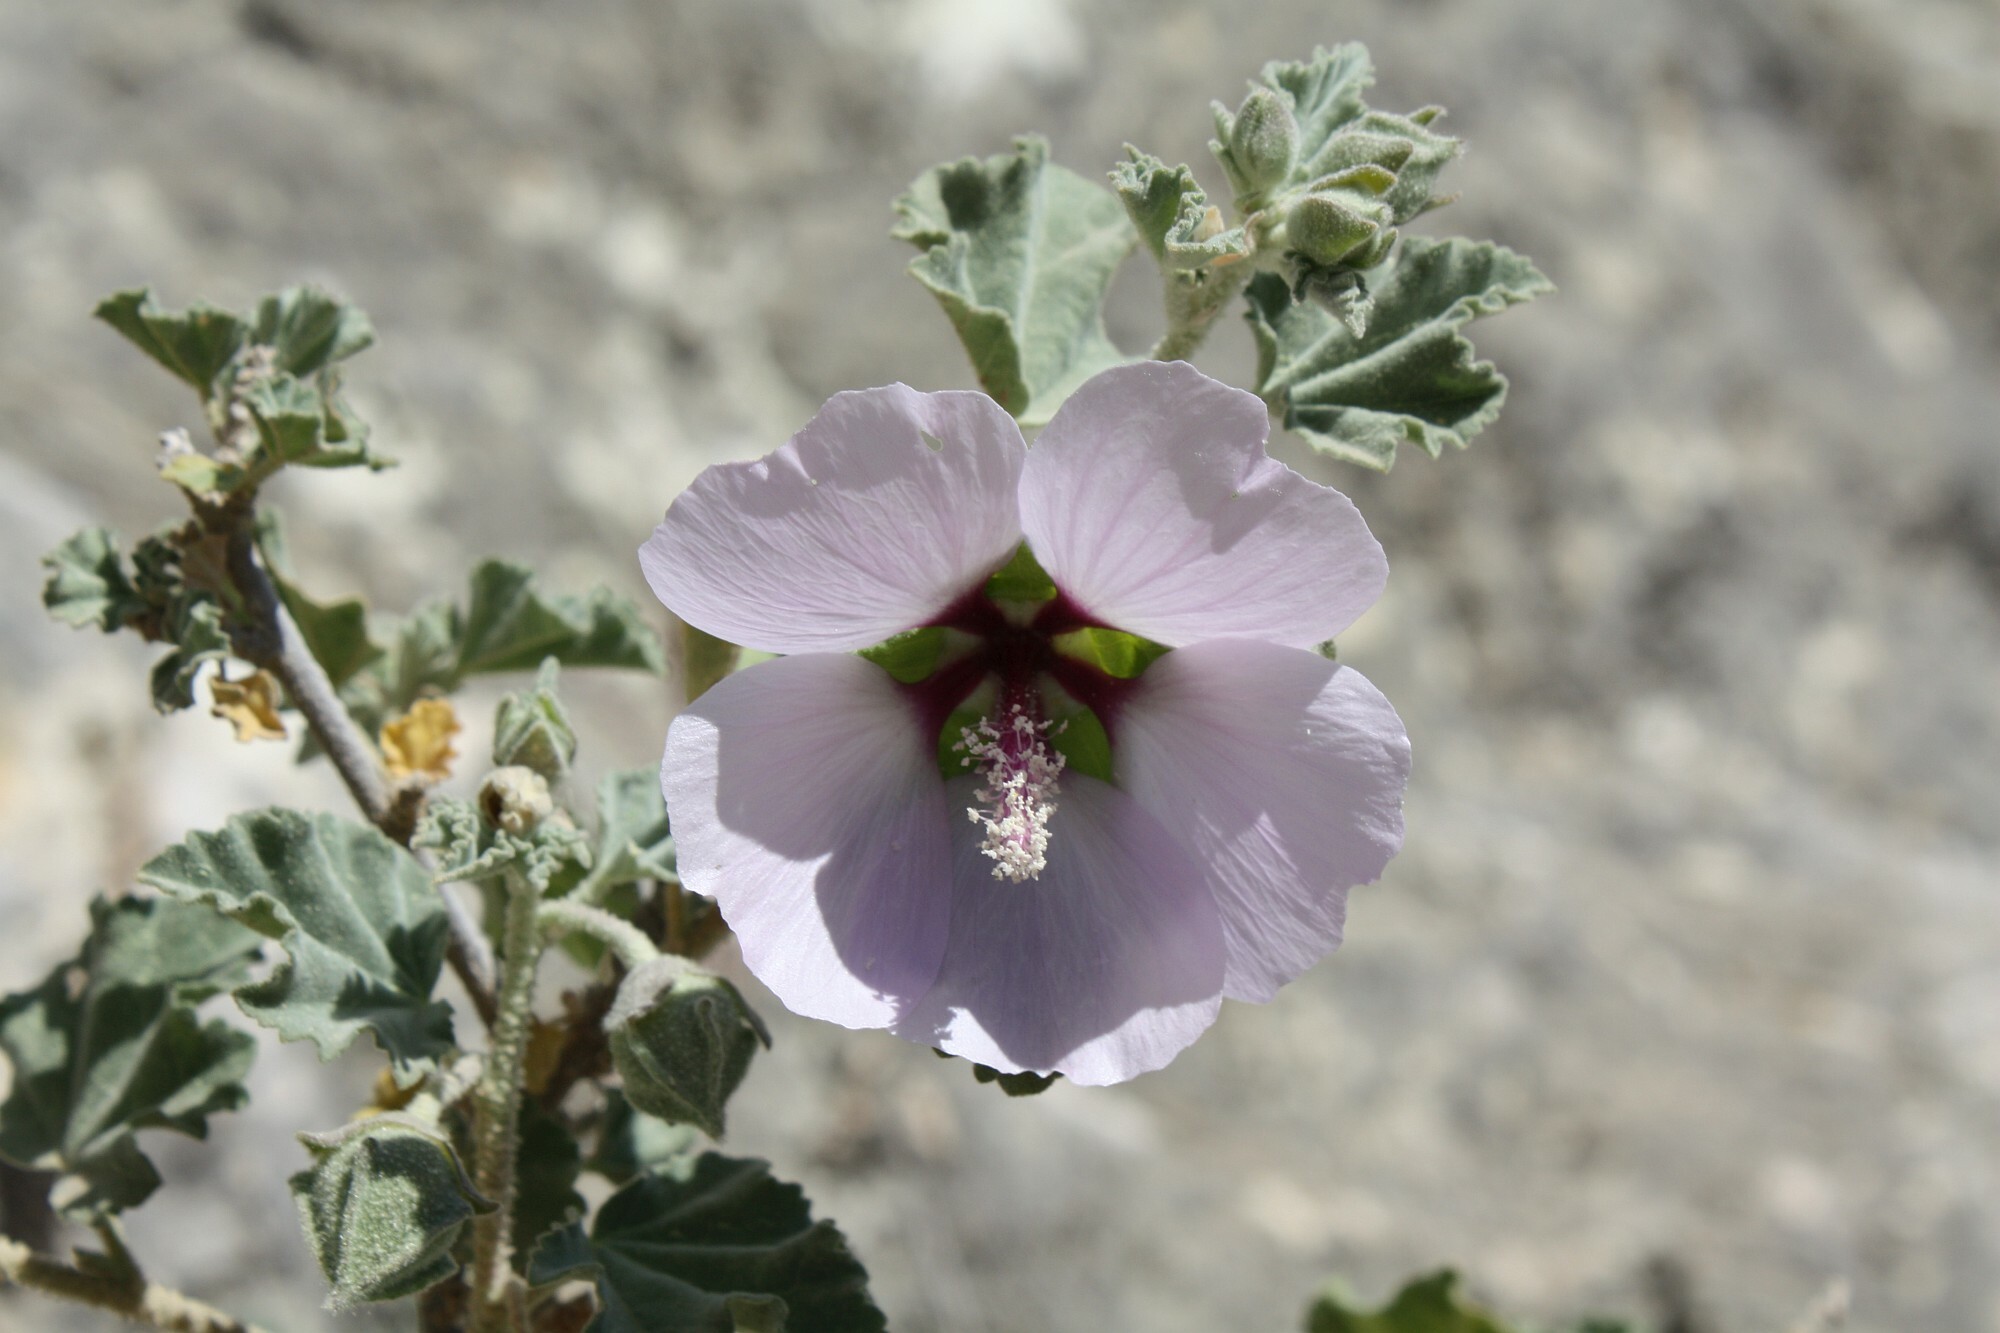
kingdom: Plantae
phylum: Tracheophyta
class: Magnoliopsida
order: Malvales
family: Malvaceae
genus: Malva
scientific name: Malva subovata
